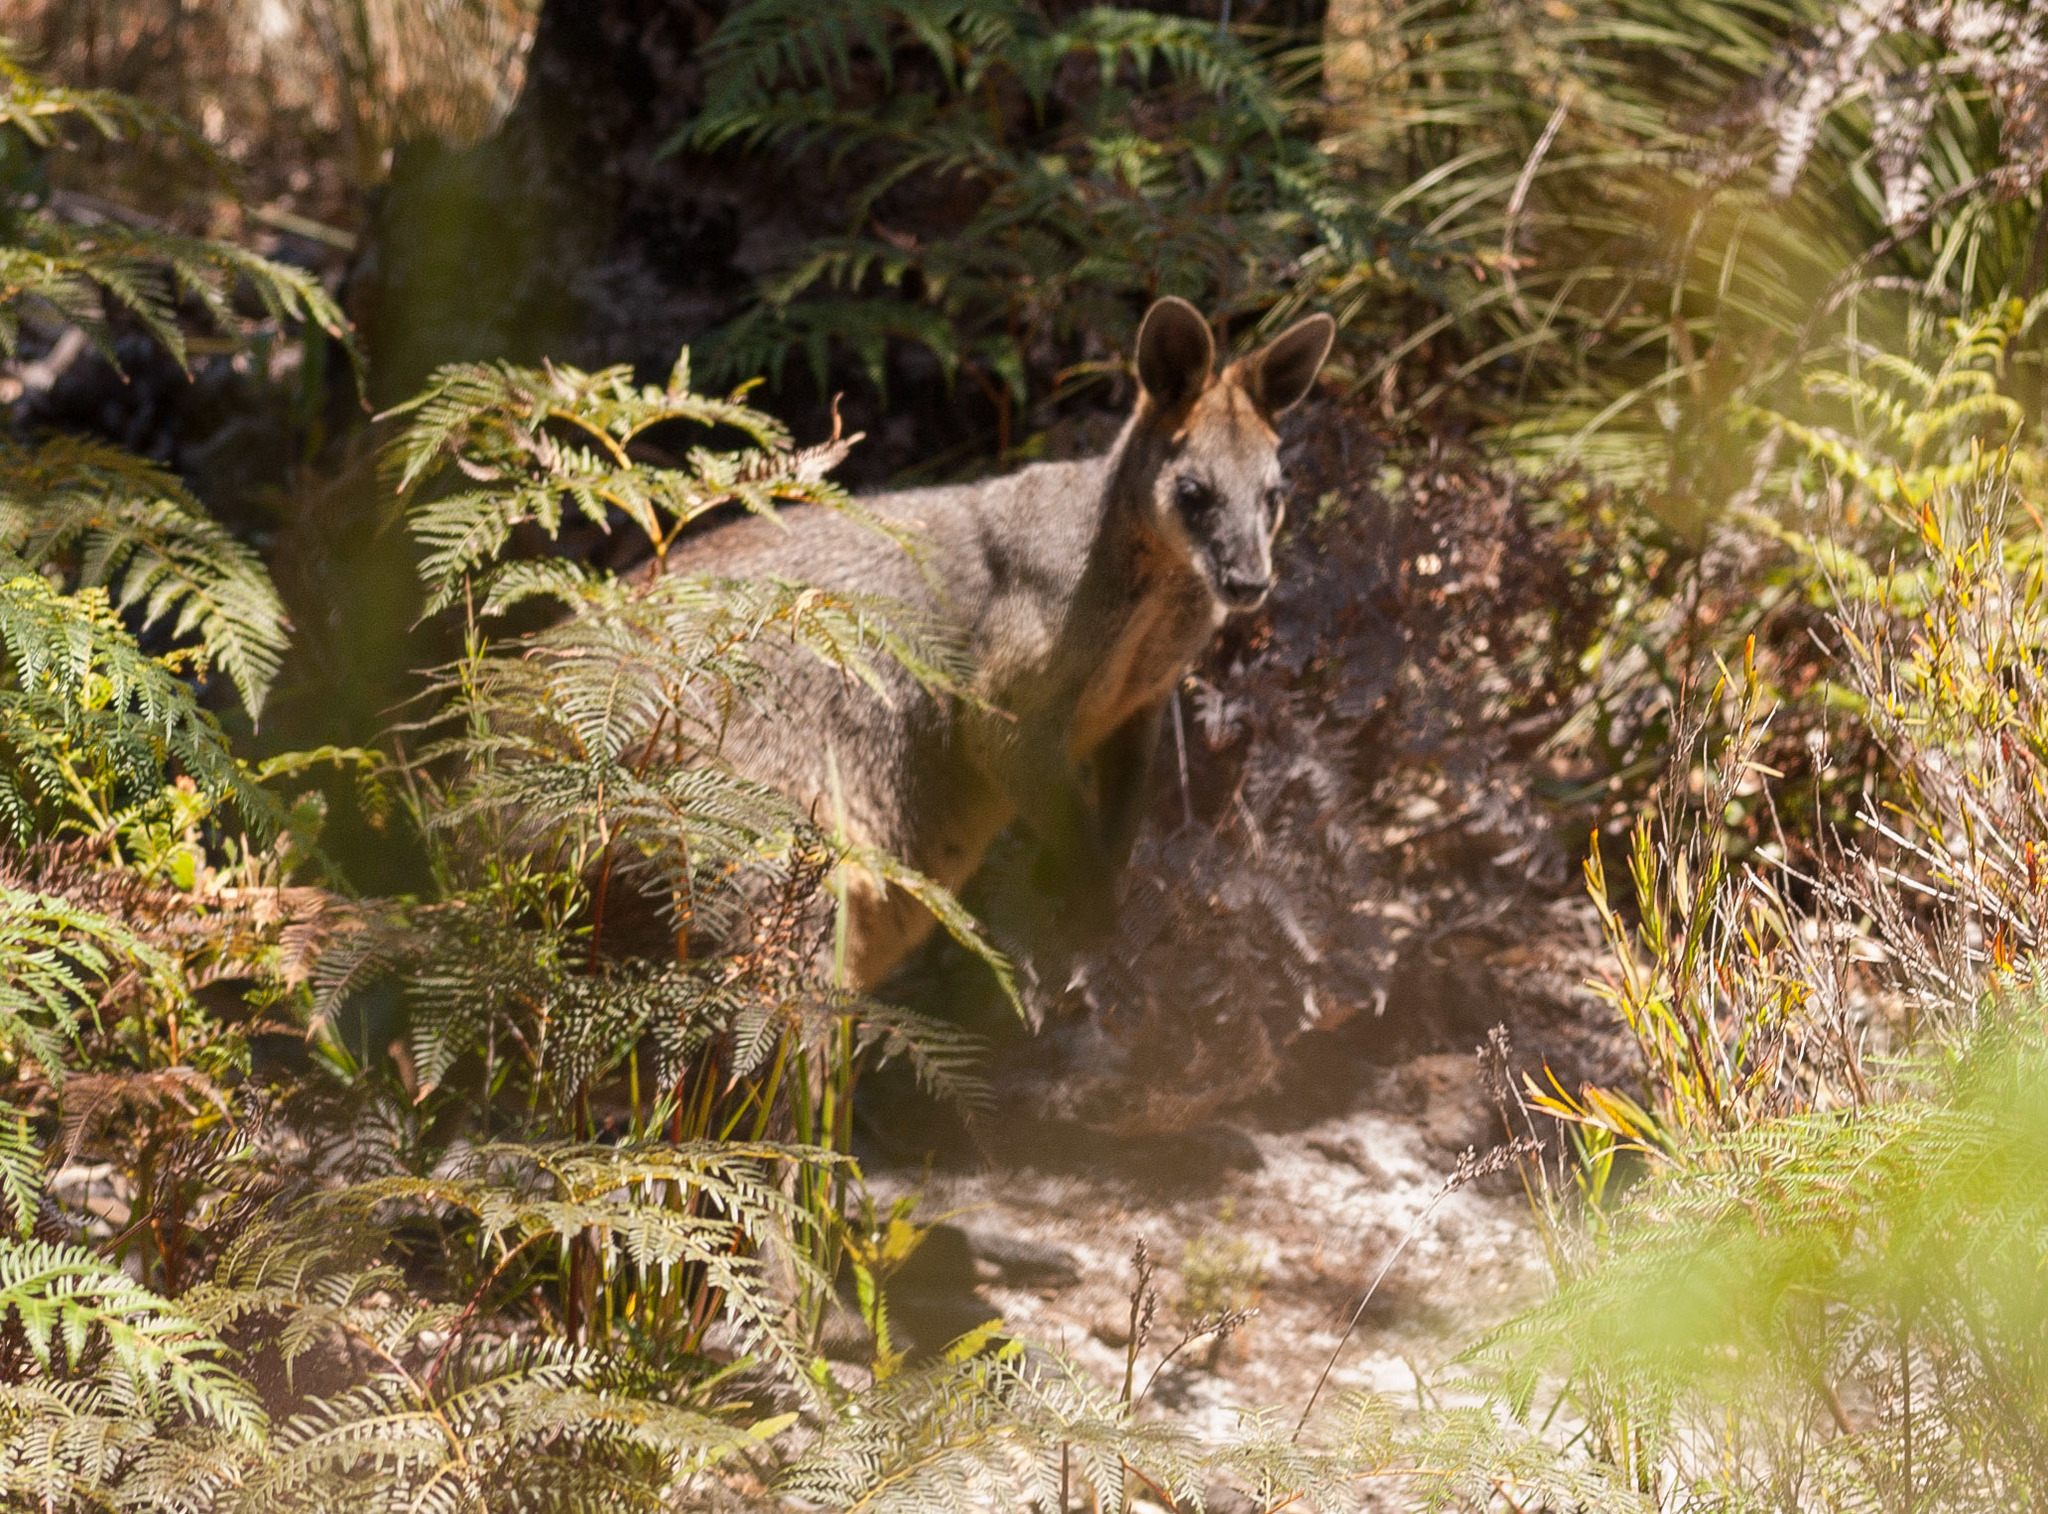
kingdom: Animalia
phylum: Chordata
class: Mammalia
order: Diprotodontia
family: Macropodidae
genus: Wallabia
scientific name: Wallabia bicolor
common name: Swamp wallaby
